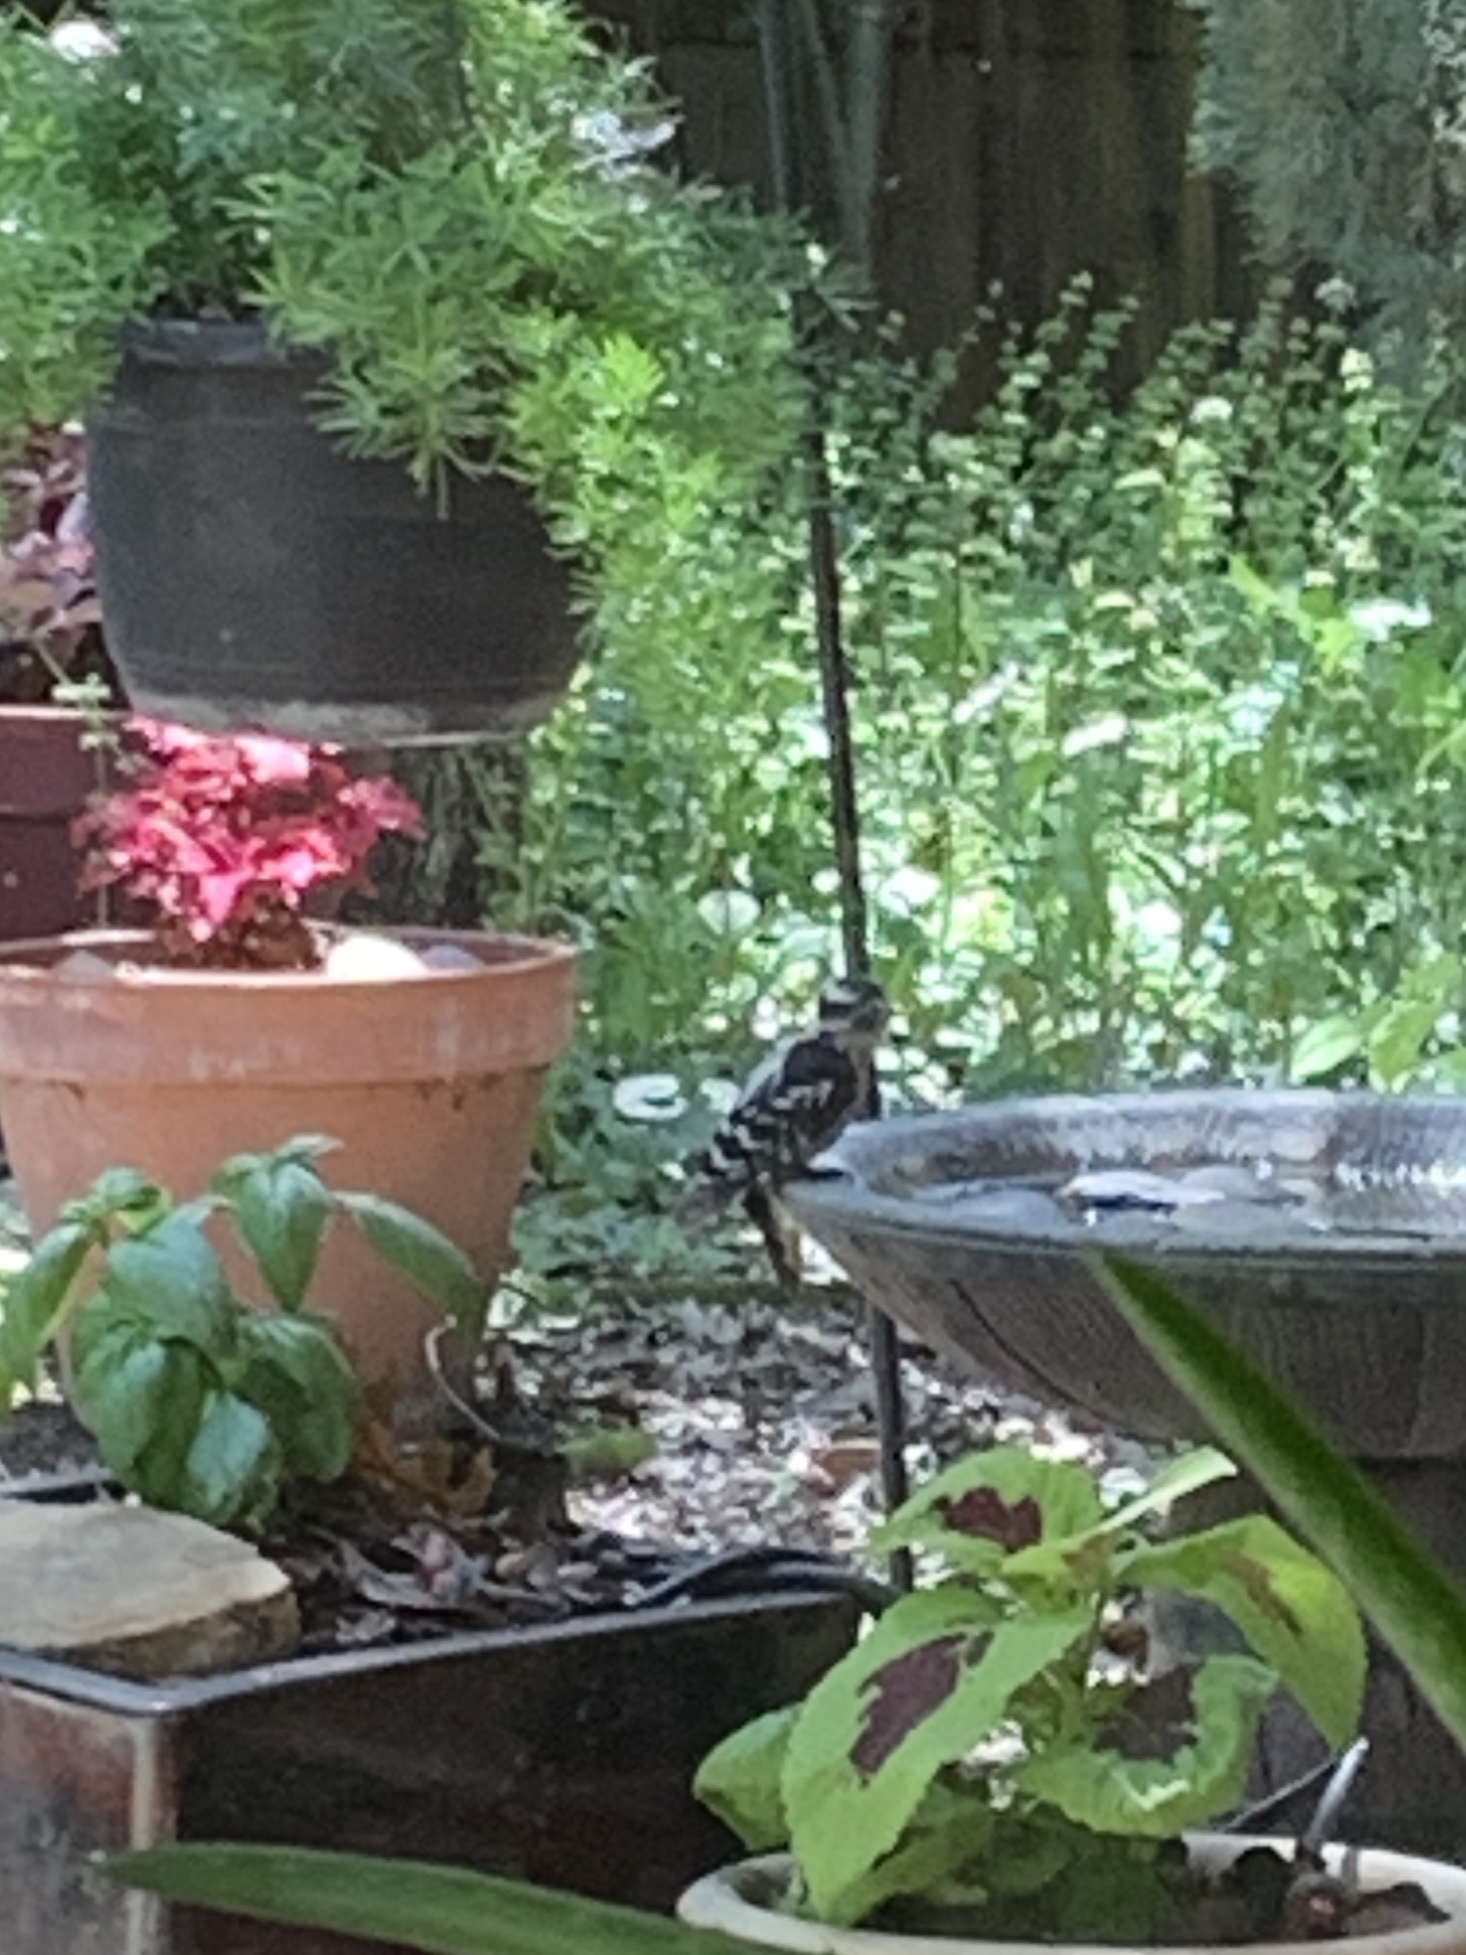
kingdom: Animalia
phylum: Chordata
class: Aves
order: Piciformes
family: Picidae
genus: Dryobates
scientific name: Dryobates pubescens
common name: Downy woodpecker
